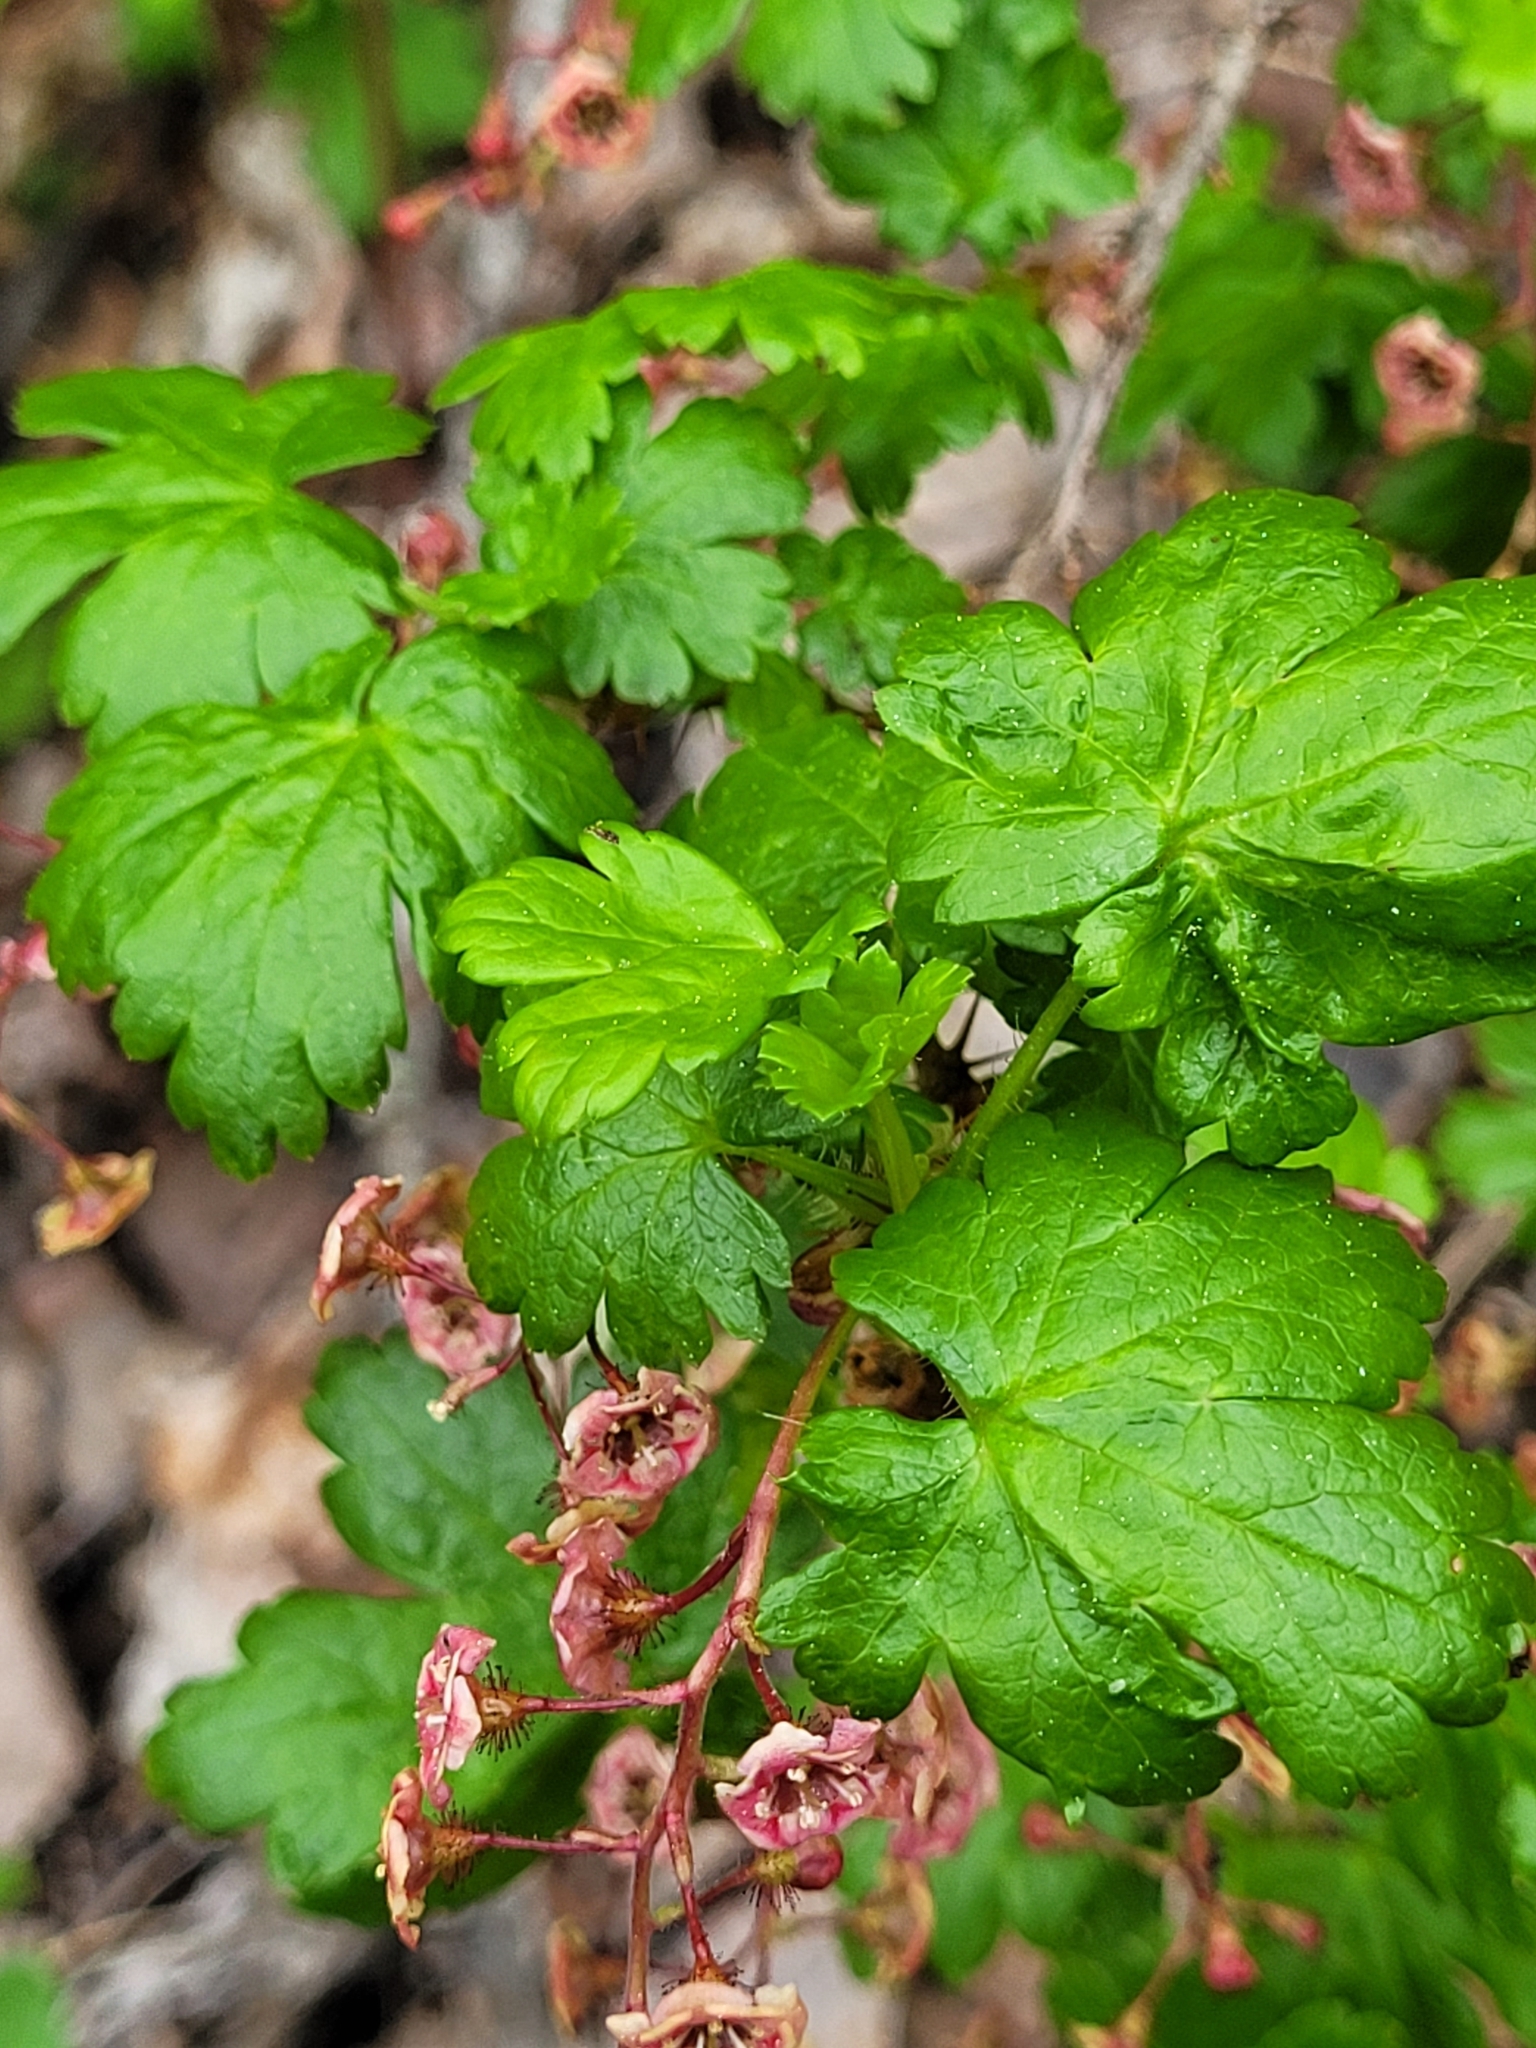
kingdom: Plantae
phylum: Tracheophyta
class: Magnoliopsida
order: Saxifragales
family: Grossulariaceae
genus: Ribes
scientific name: Ribes lacustre
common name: Black gooseberry
